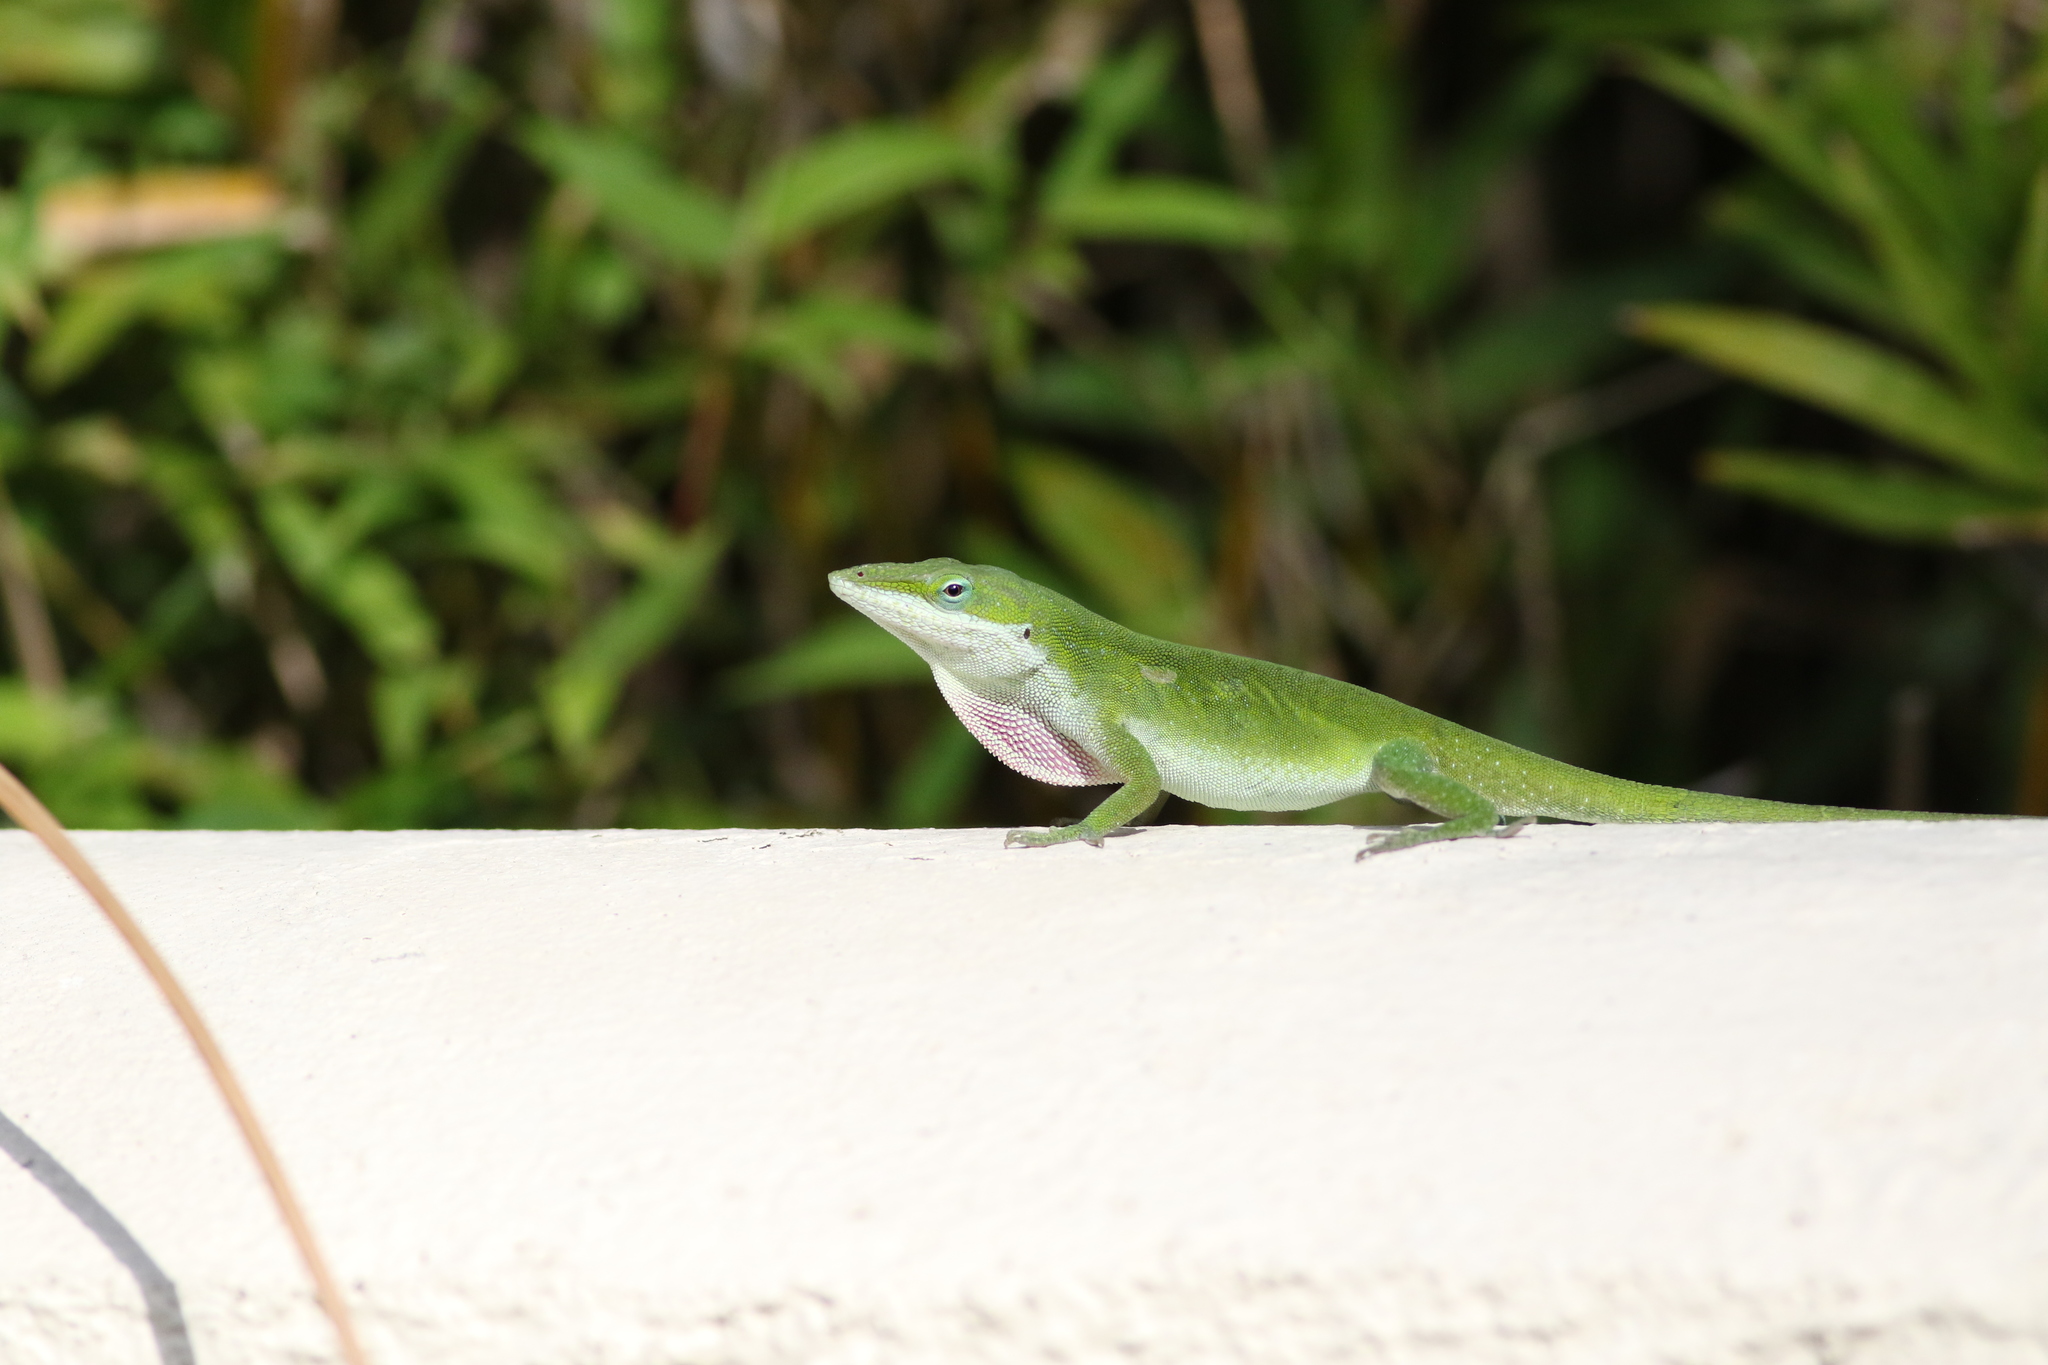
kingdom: Animalia
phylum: Chordata
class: Squamata
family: Dactyloidae
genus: Anolis
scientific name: Anolis carolinensis
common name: Green anole
